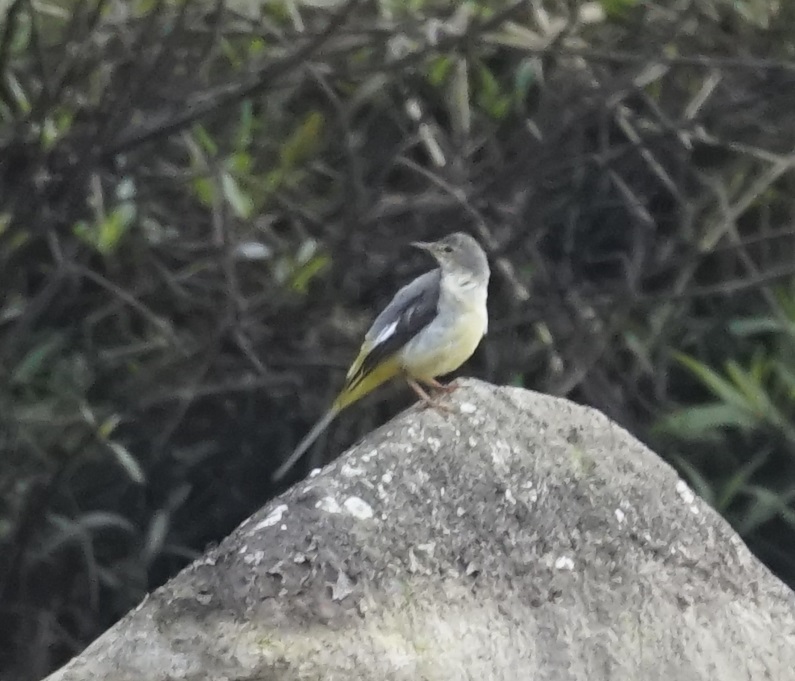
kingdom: Animalia
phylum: Chordata
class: Aves
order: Passeriformes
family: Motacillidae
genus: Motacilla
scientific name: Motacilla cinerea
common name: Grey wagtail
